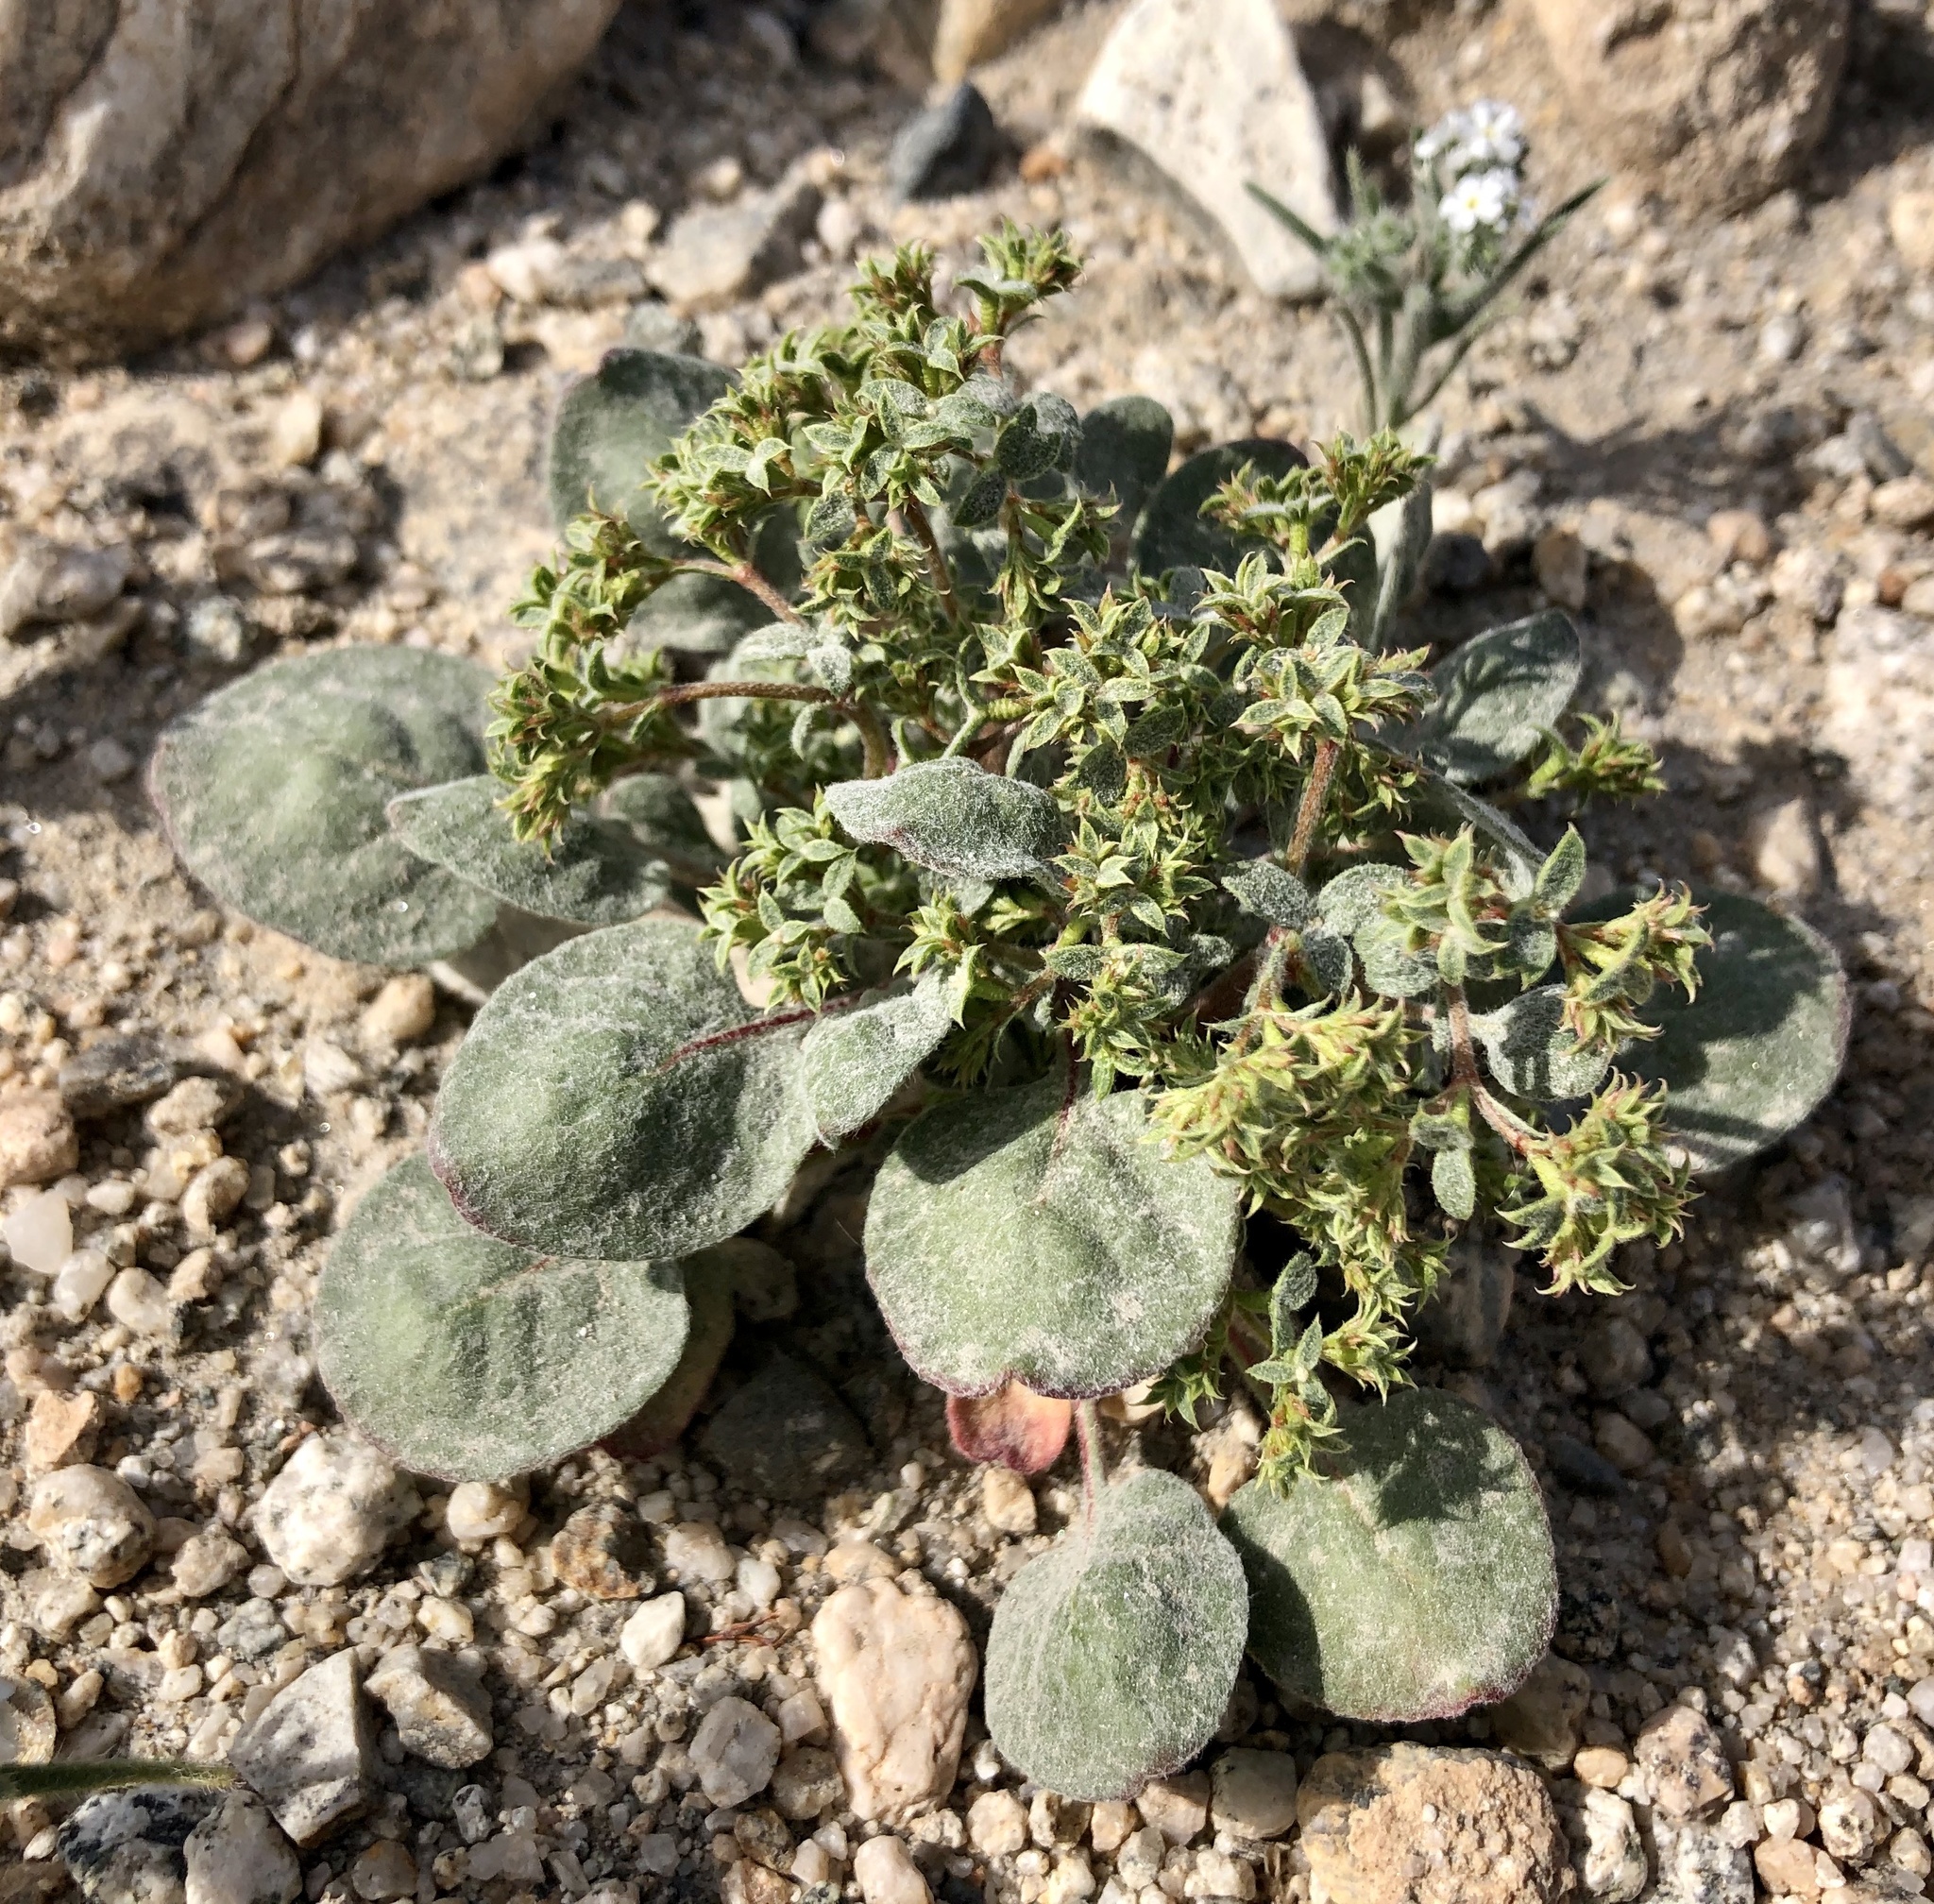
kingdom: Plantae
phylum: Tracheophyta
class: Magnoliopsida
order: Caryophyllales
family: Polygonaceae
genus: Chorizanthe
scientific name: Chorizanthe corrugata
